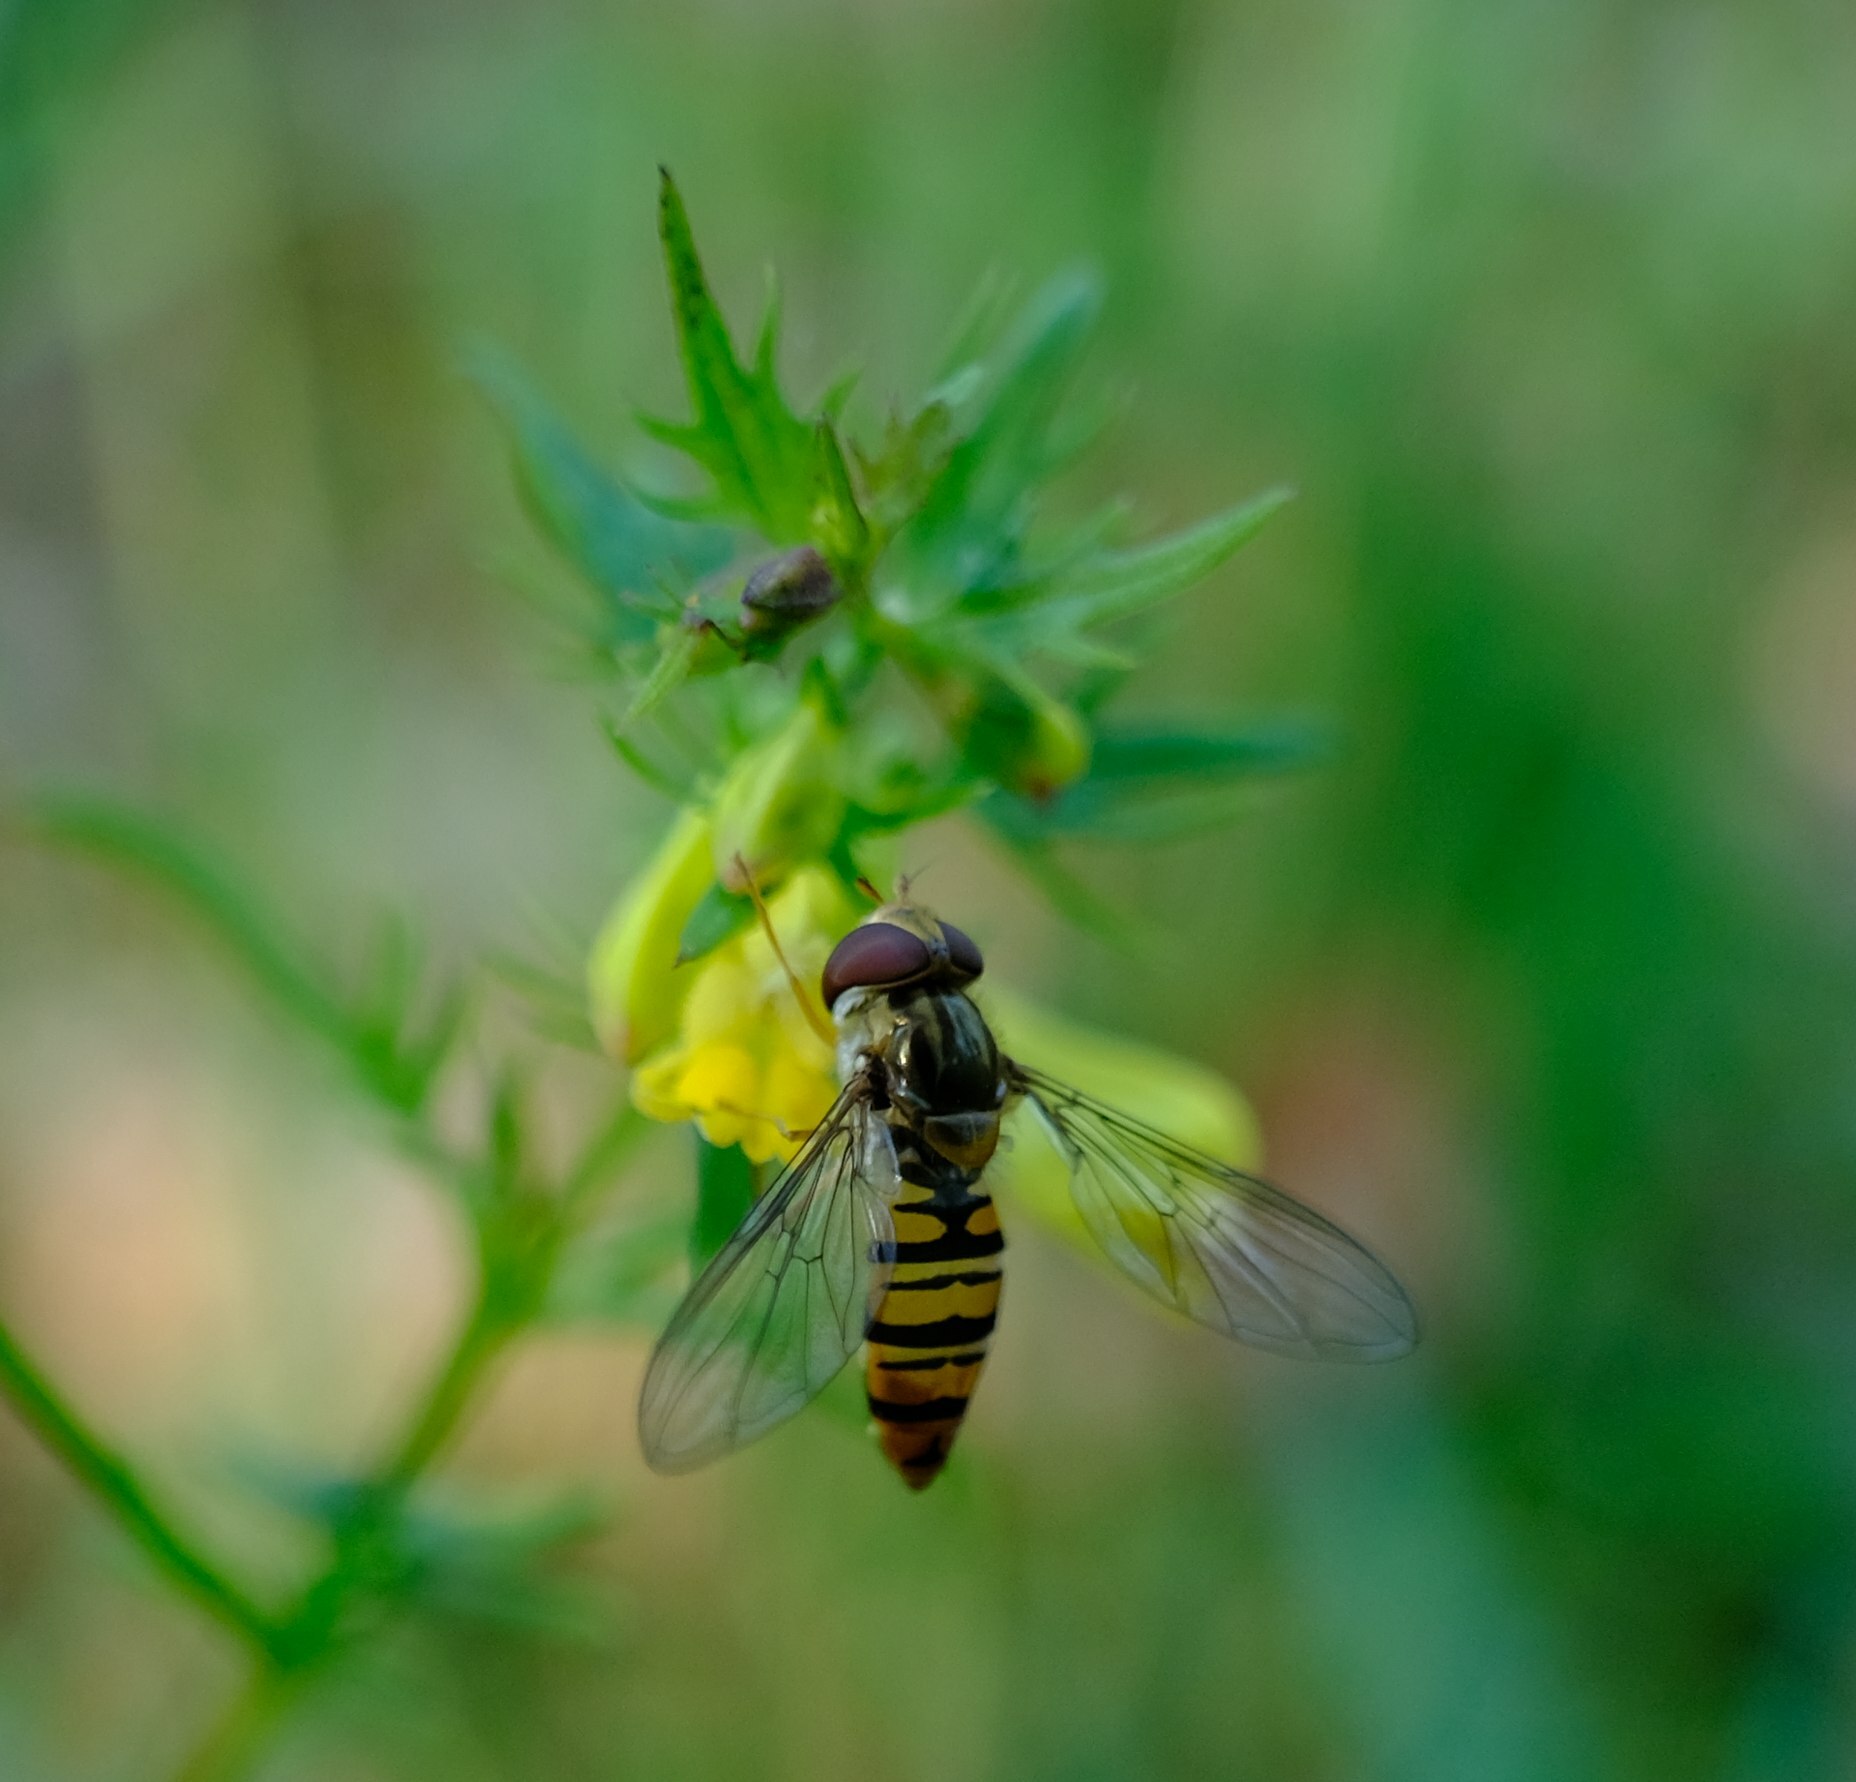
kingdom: Animalia
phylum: Arthropoda
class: Insecta
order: Diptera
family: Syrphidae
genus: Episyrphus
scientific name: Episyrphus balteatus
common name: Marmalade hoverfly
